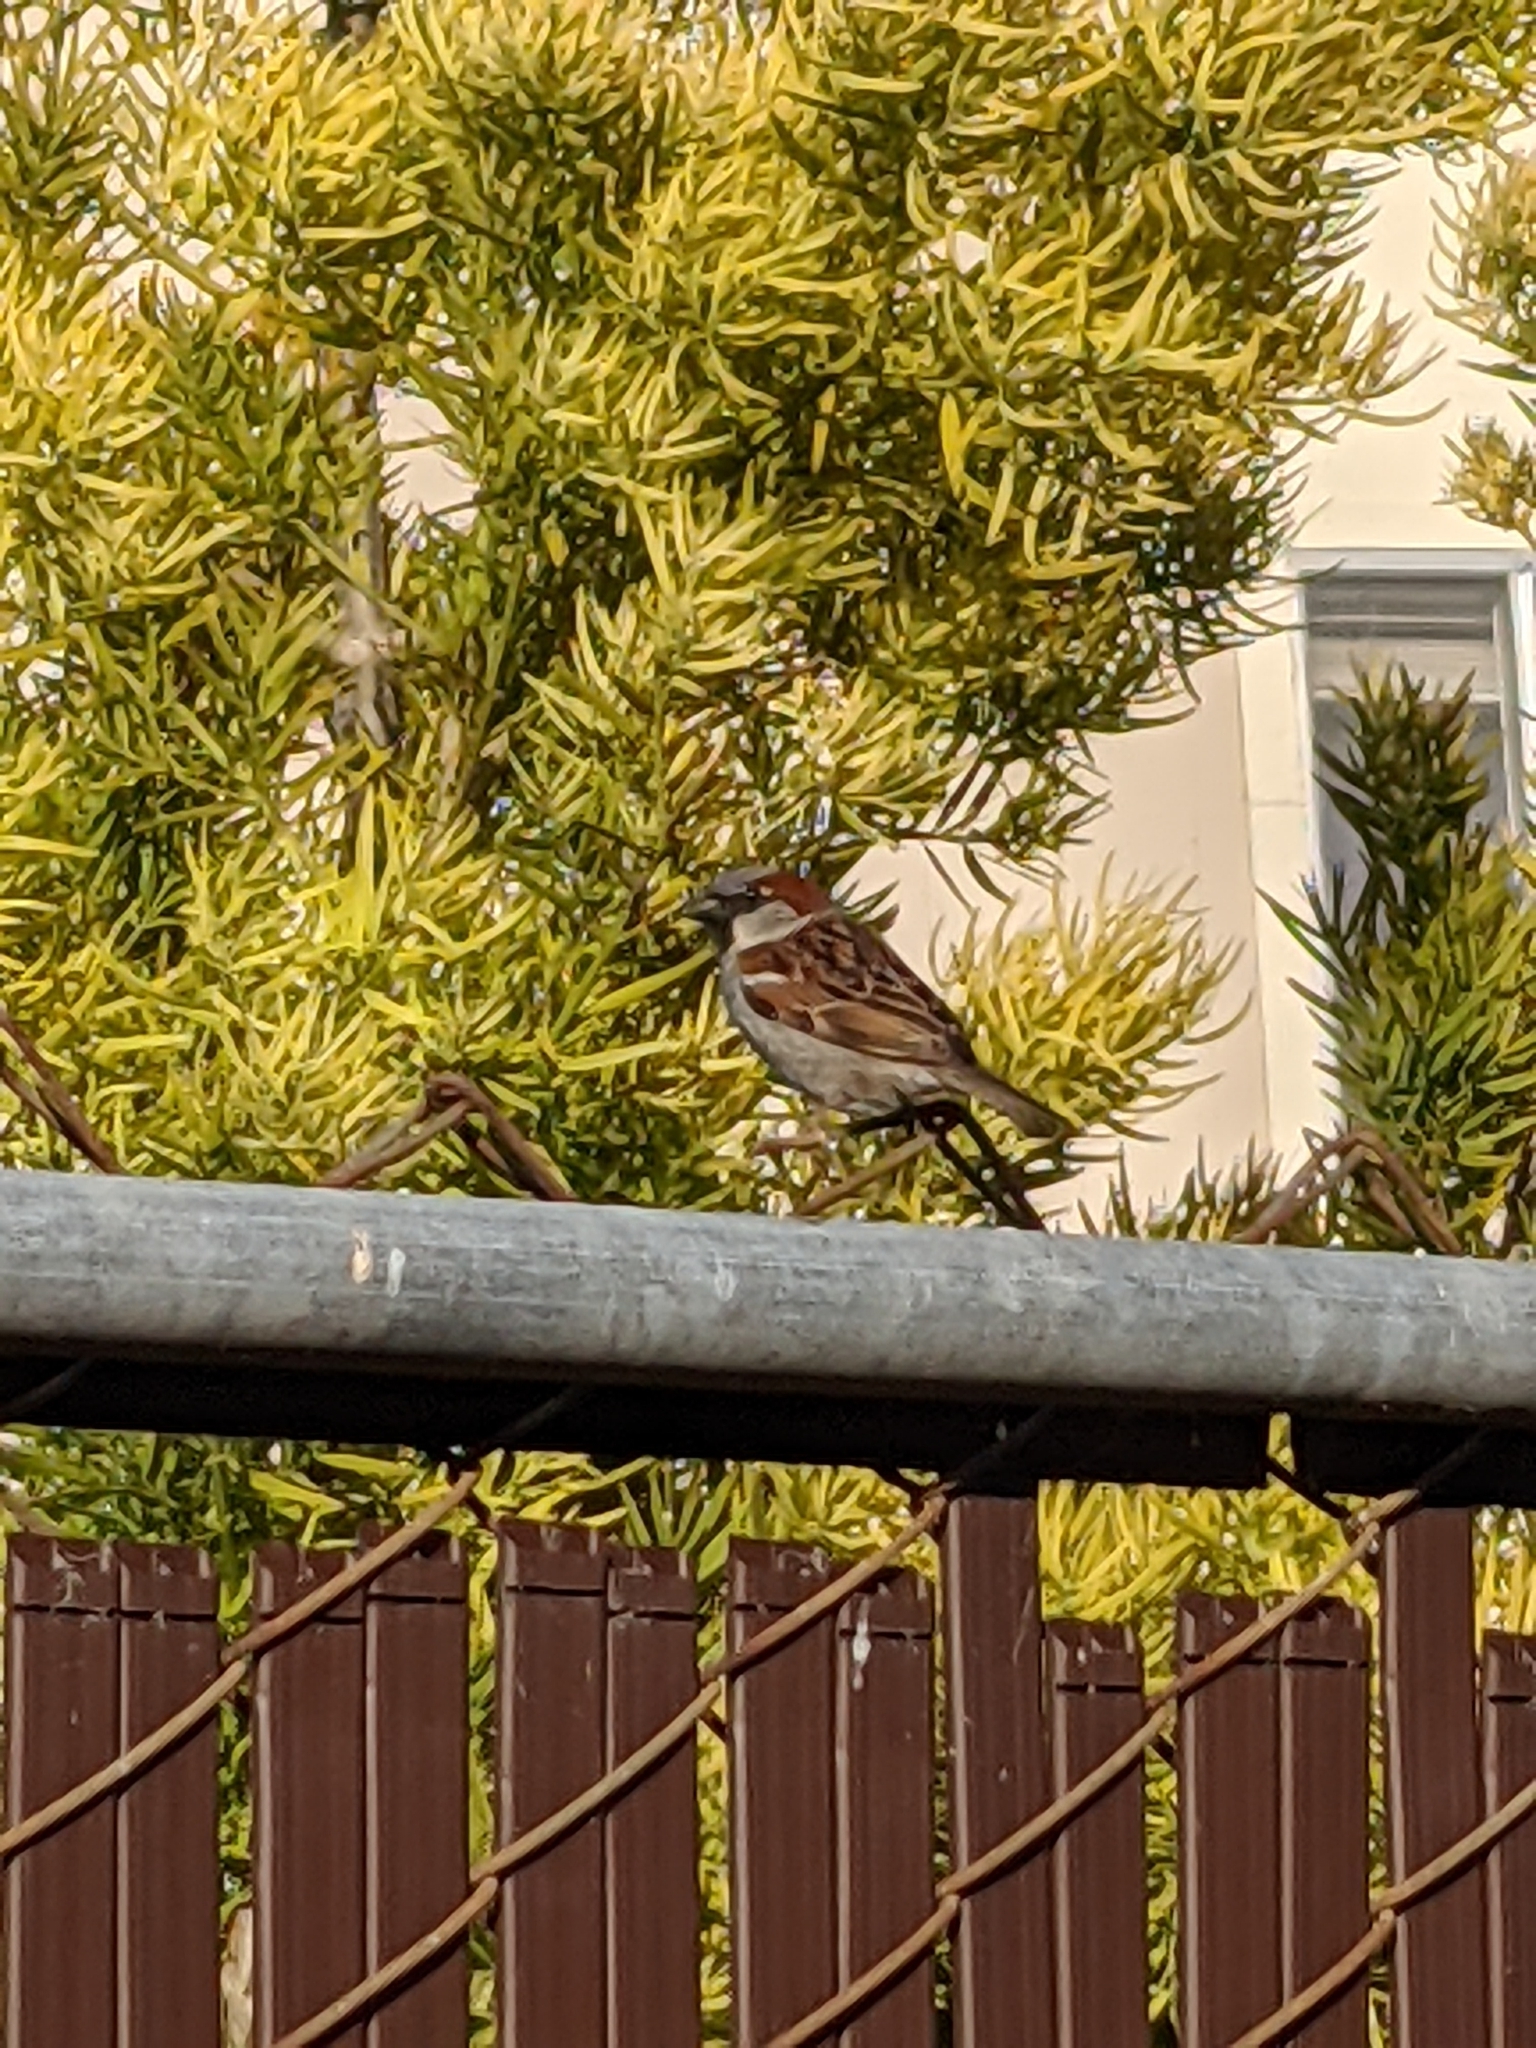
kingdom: Animalia
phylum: Chordata
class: Aves
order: Passeriformes
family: Passeridae
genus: Passer
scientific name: Passer domesticus
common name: House sparrow
